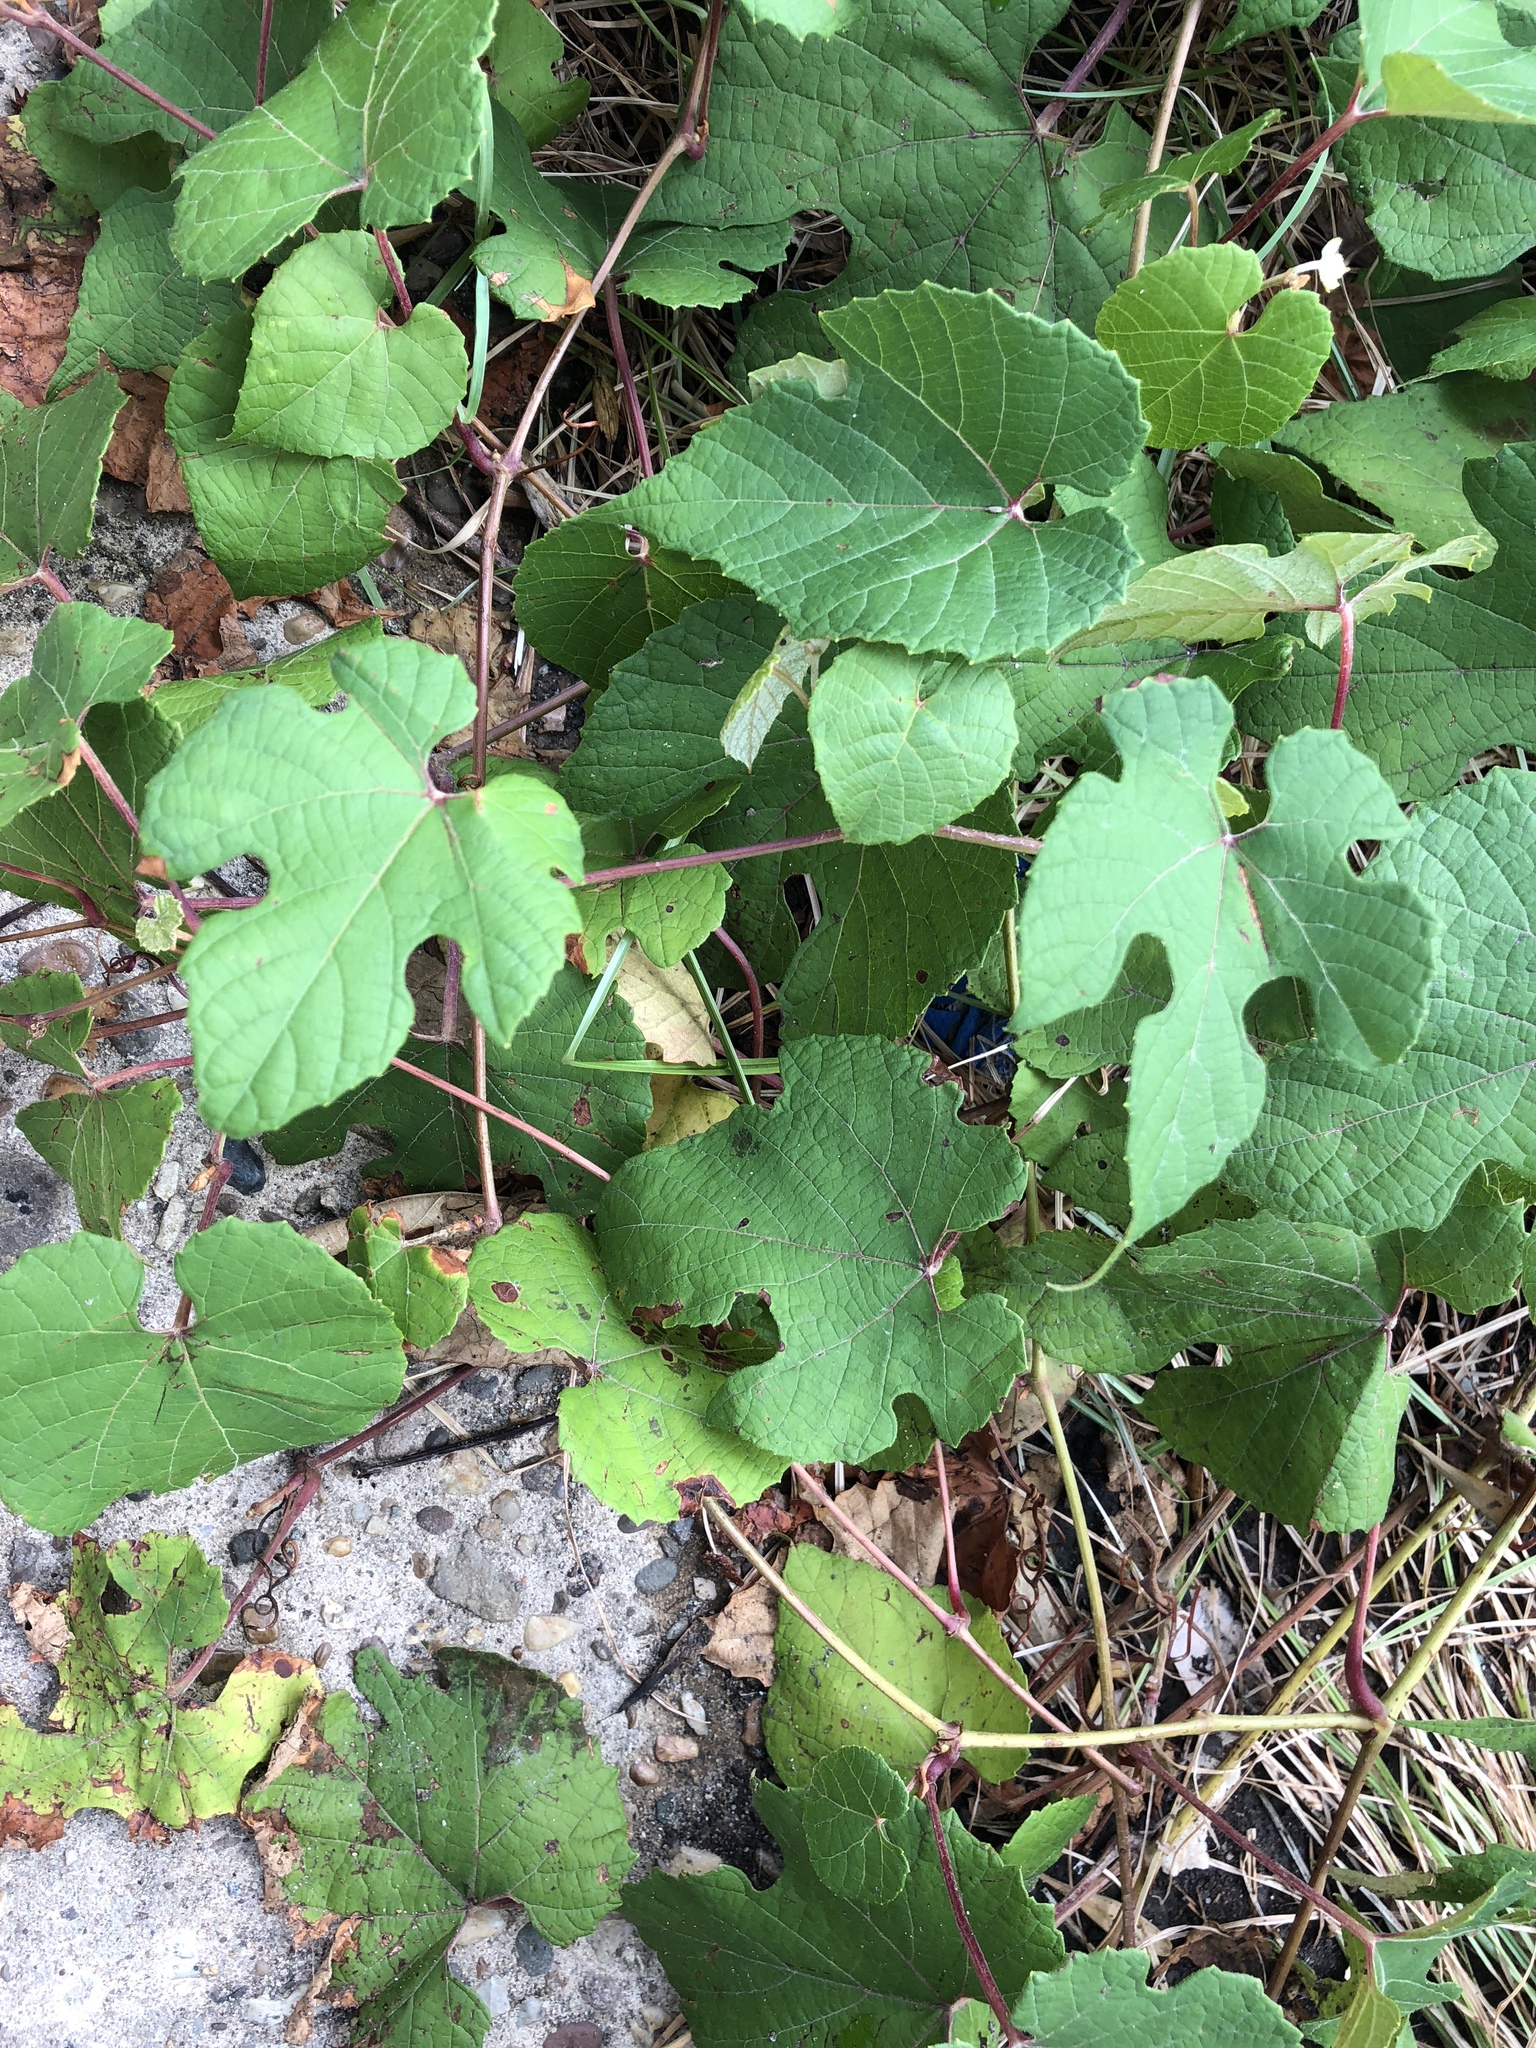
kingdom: Plantae
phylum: Tracheophyta
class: Magnoliopsida
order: Vitales
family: Vitaceae
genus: Ampelopsis
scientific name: Ampelopsis glandulosa
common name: Amur peppervine
